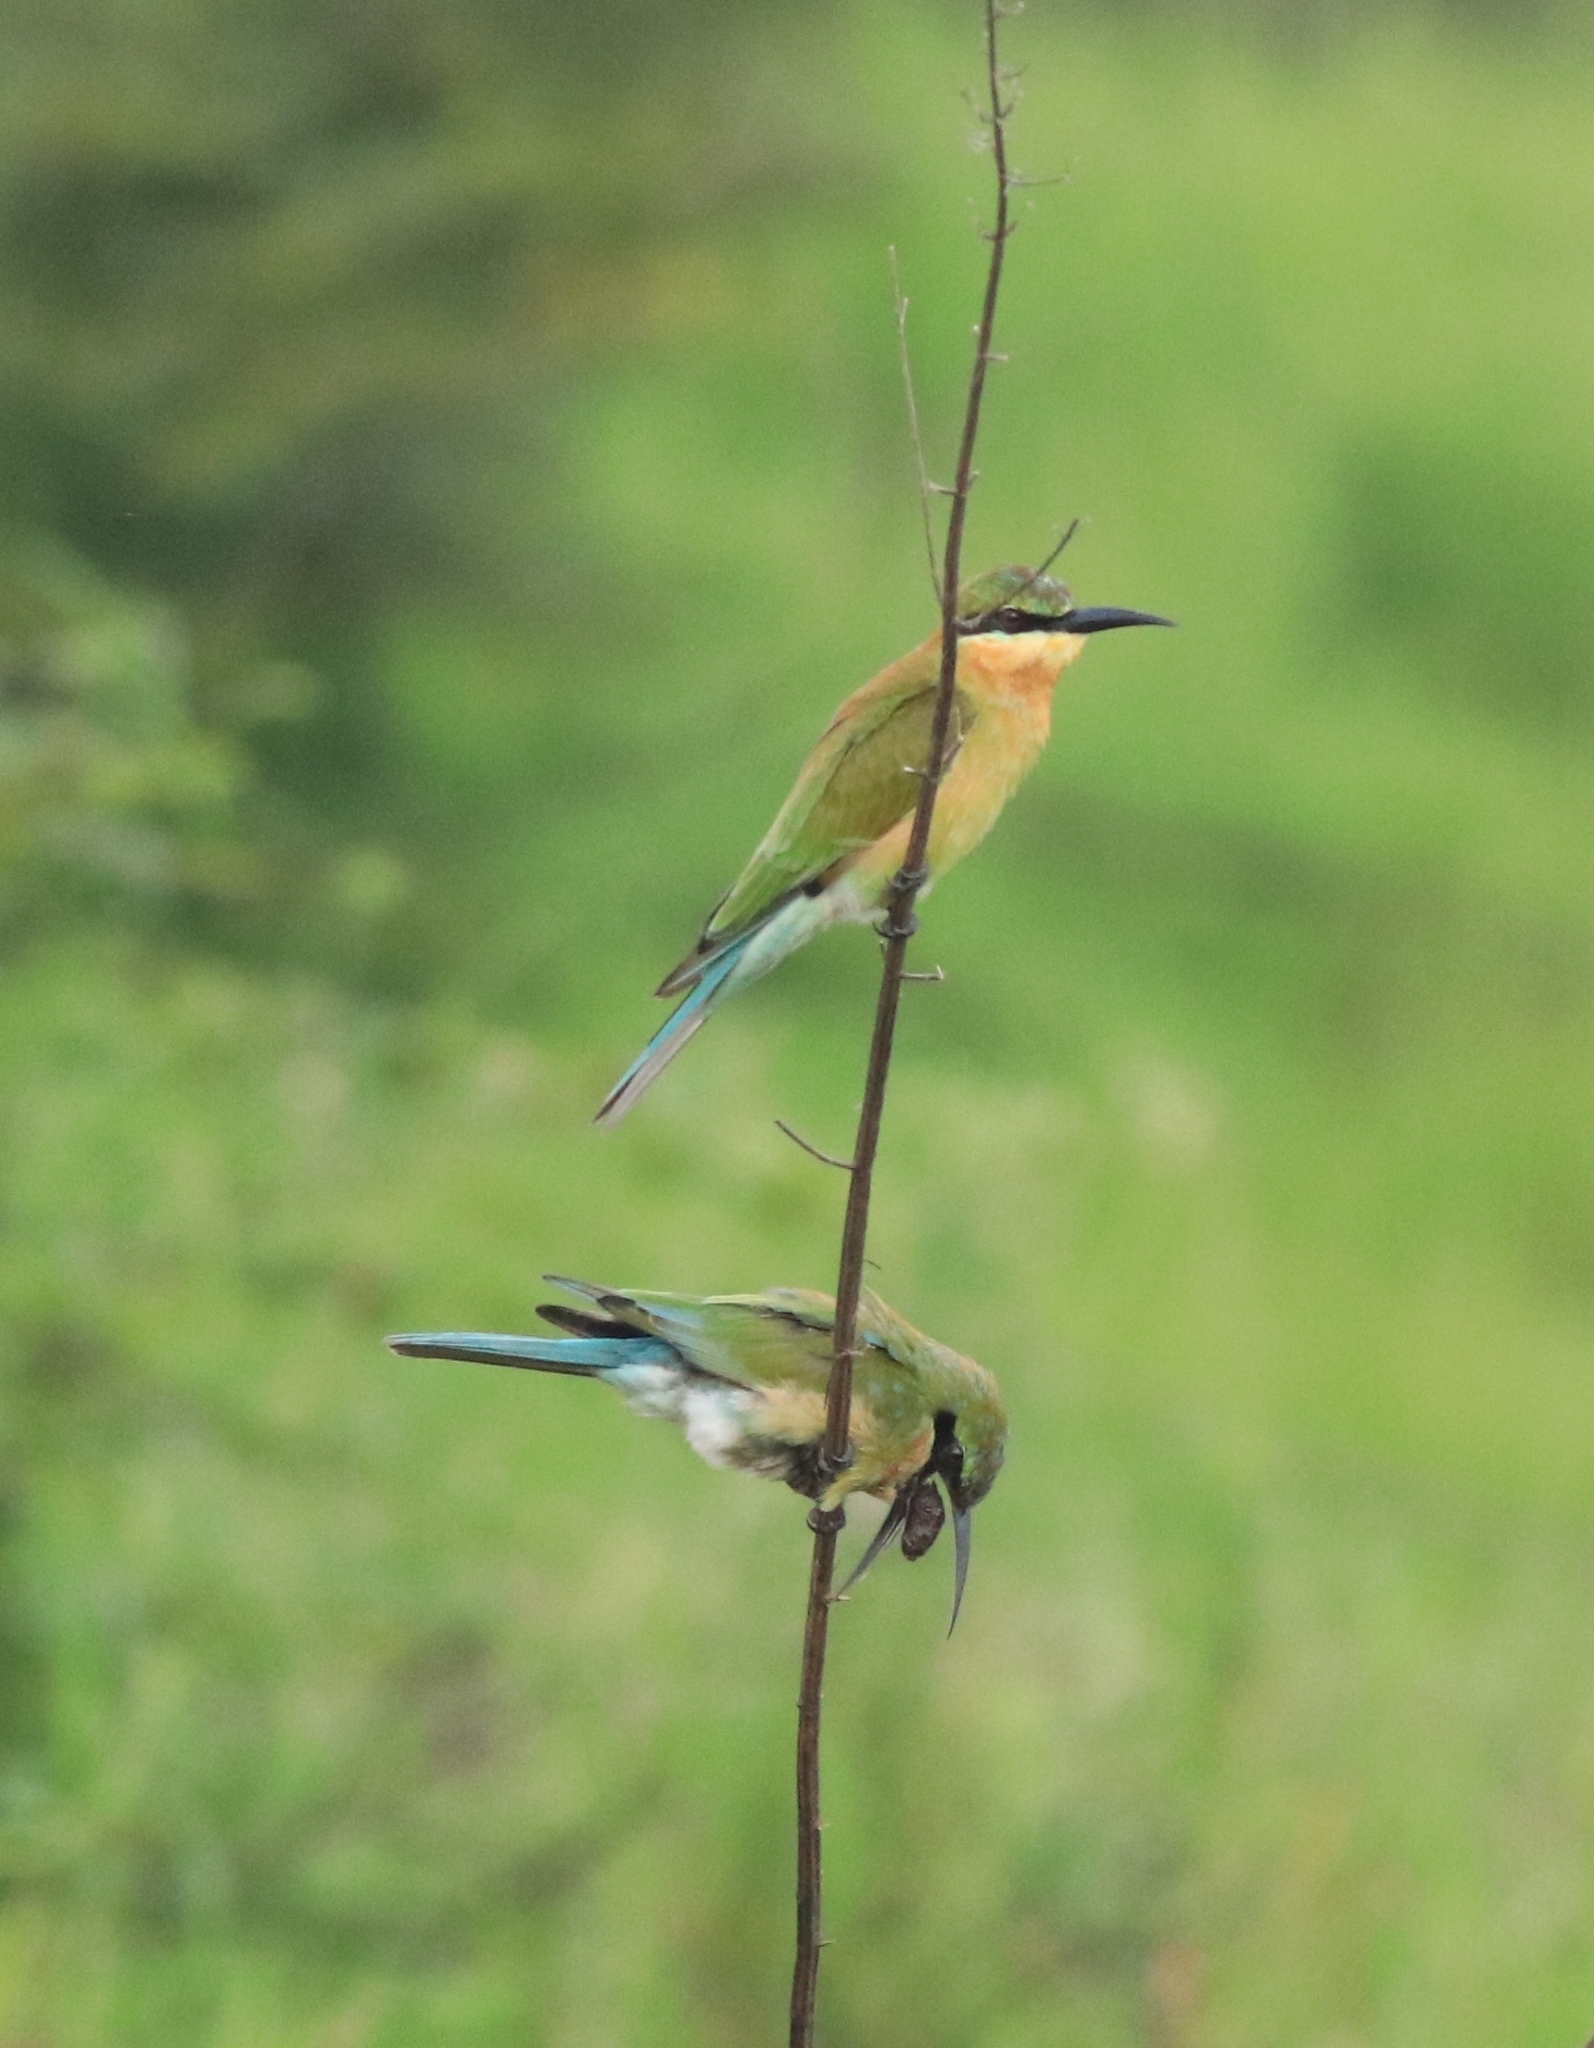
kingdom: Animalia
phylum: Chordata
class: Aves
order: Coraciiformes
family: Meropidae
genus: Merops
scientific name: Merops philippinus
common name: Blue-tailed bee-eater
